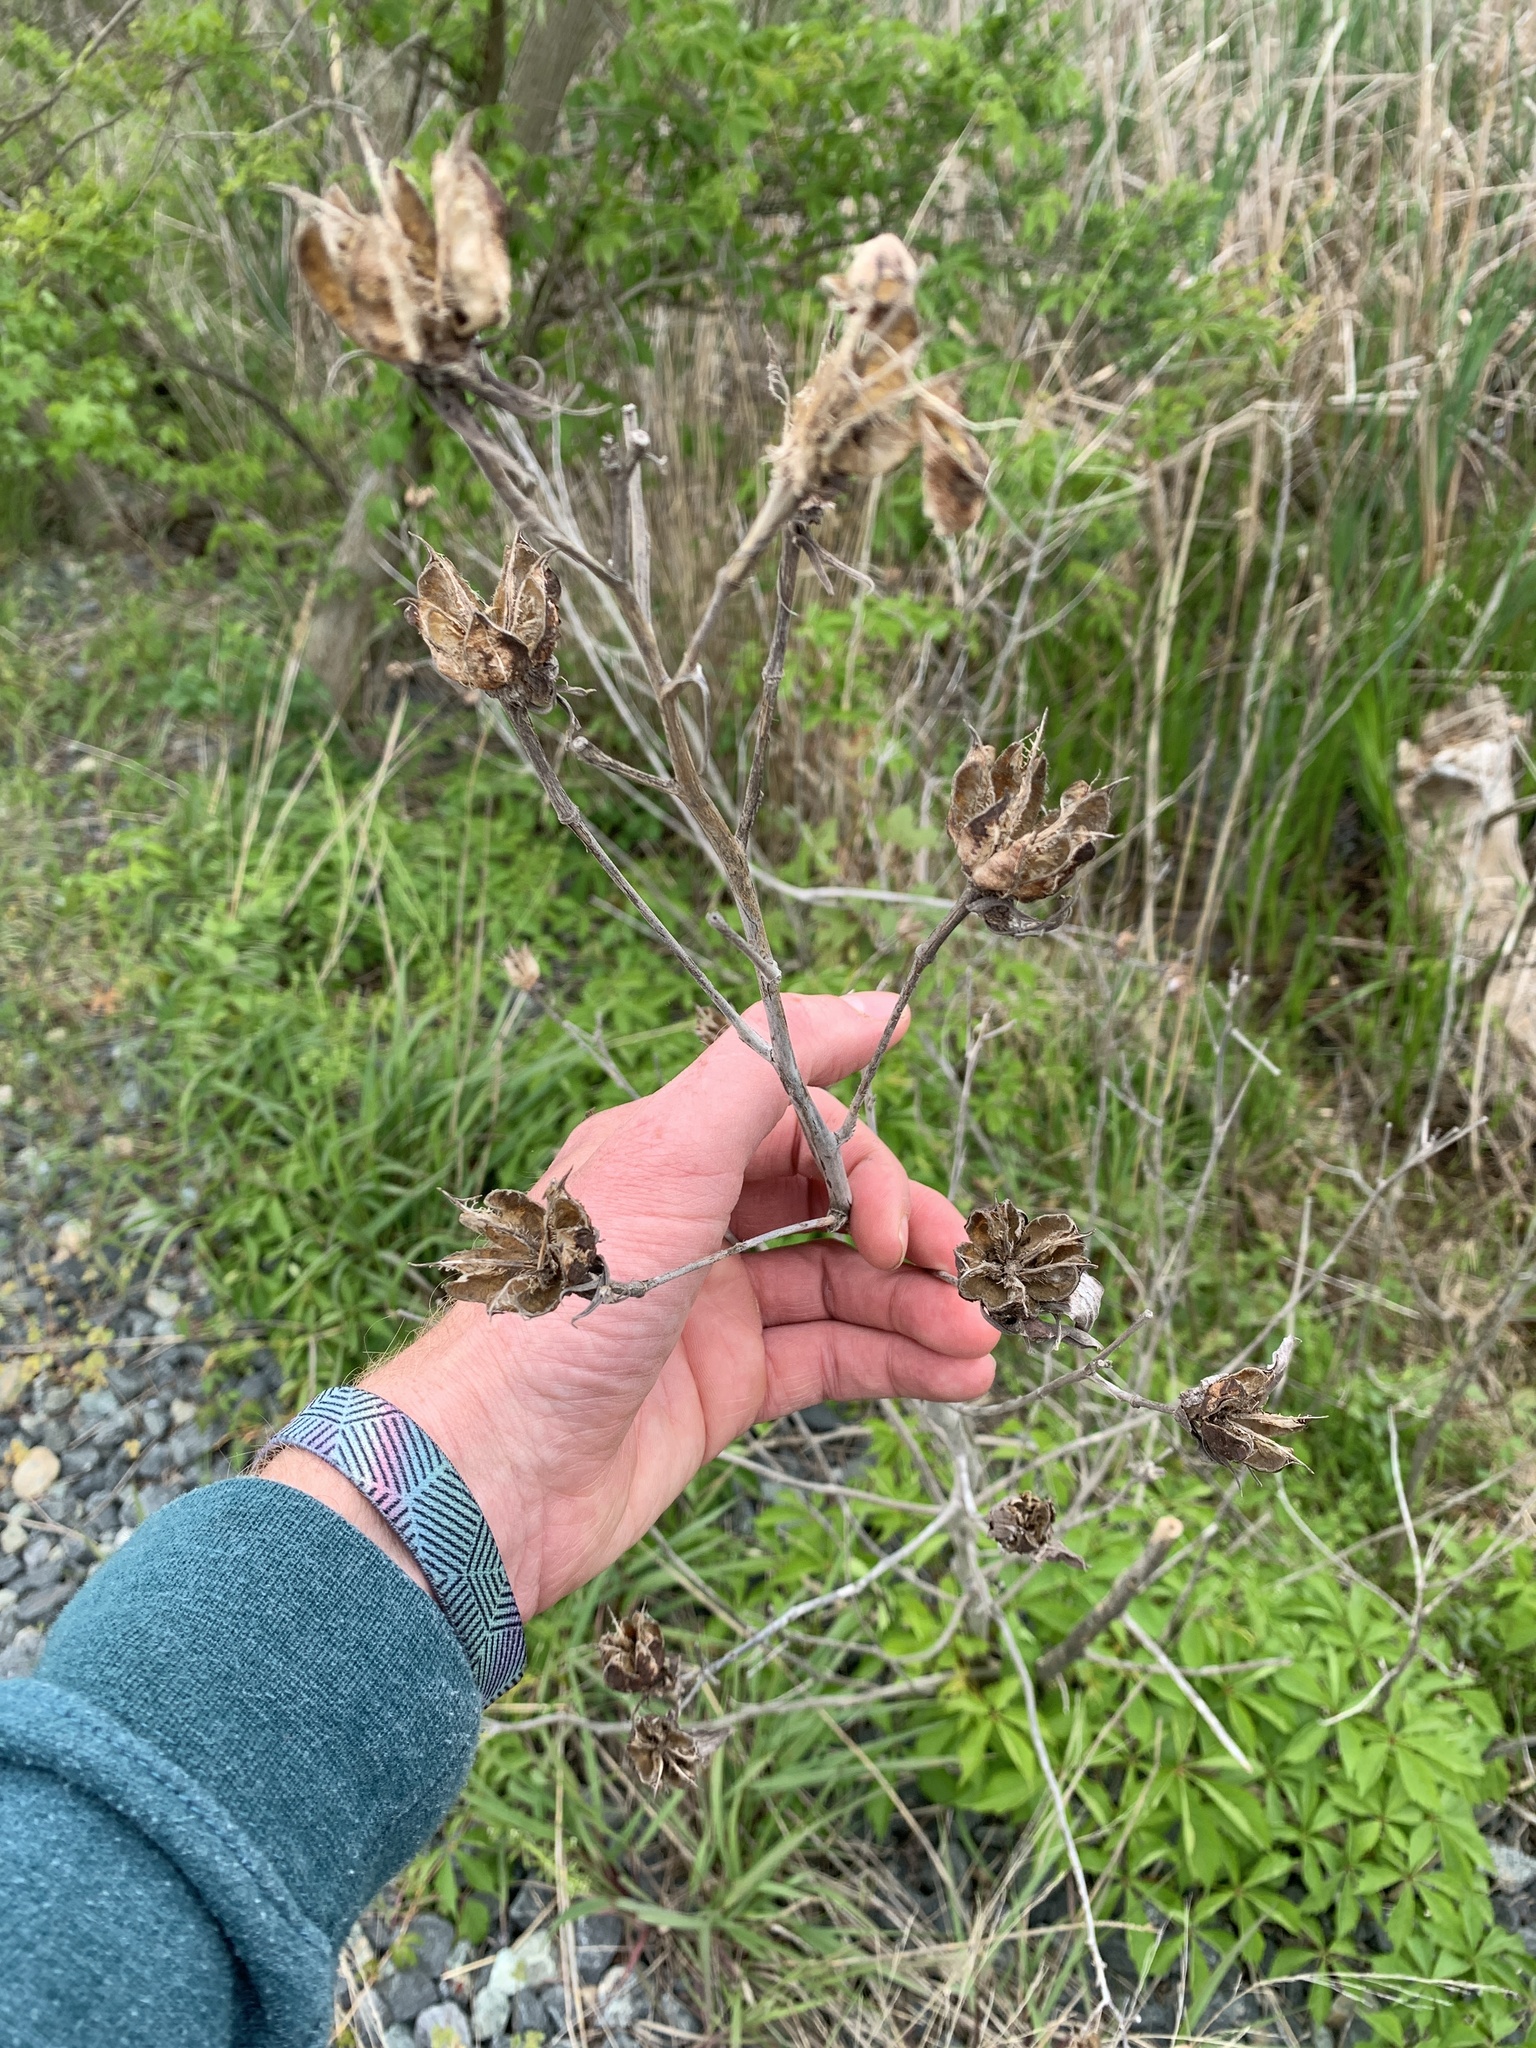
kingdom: Plantae
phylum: Tracheophyta
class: Magnoliopsida
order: Malvales
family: Malvaceae
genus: Hibiscus
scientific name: Hibiscus moscheutos
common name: Common rose-mallow
